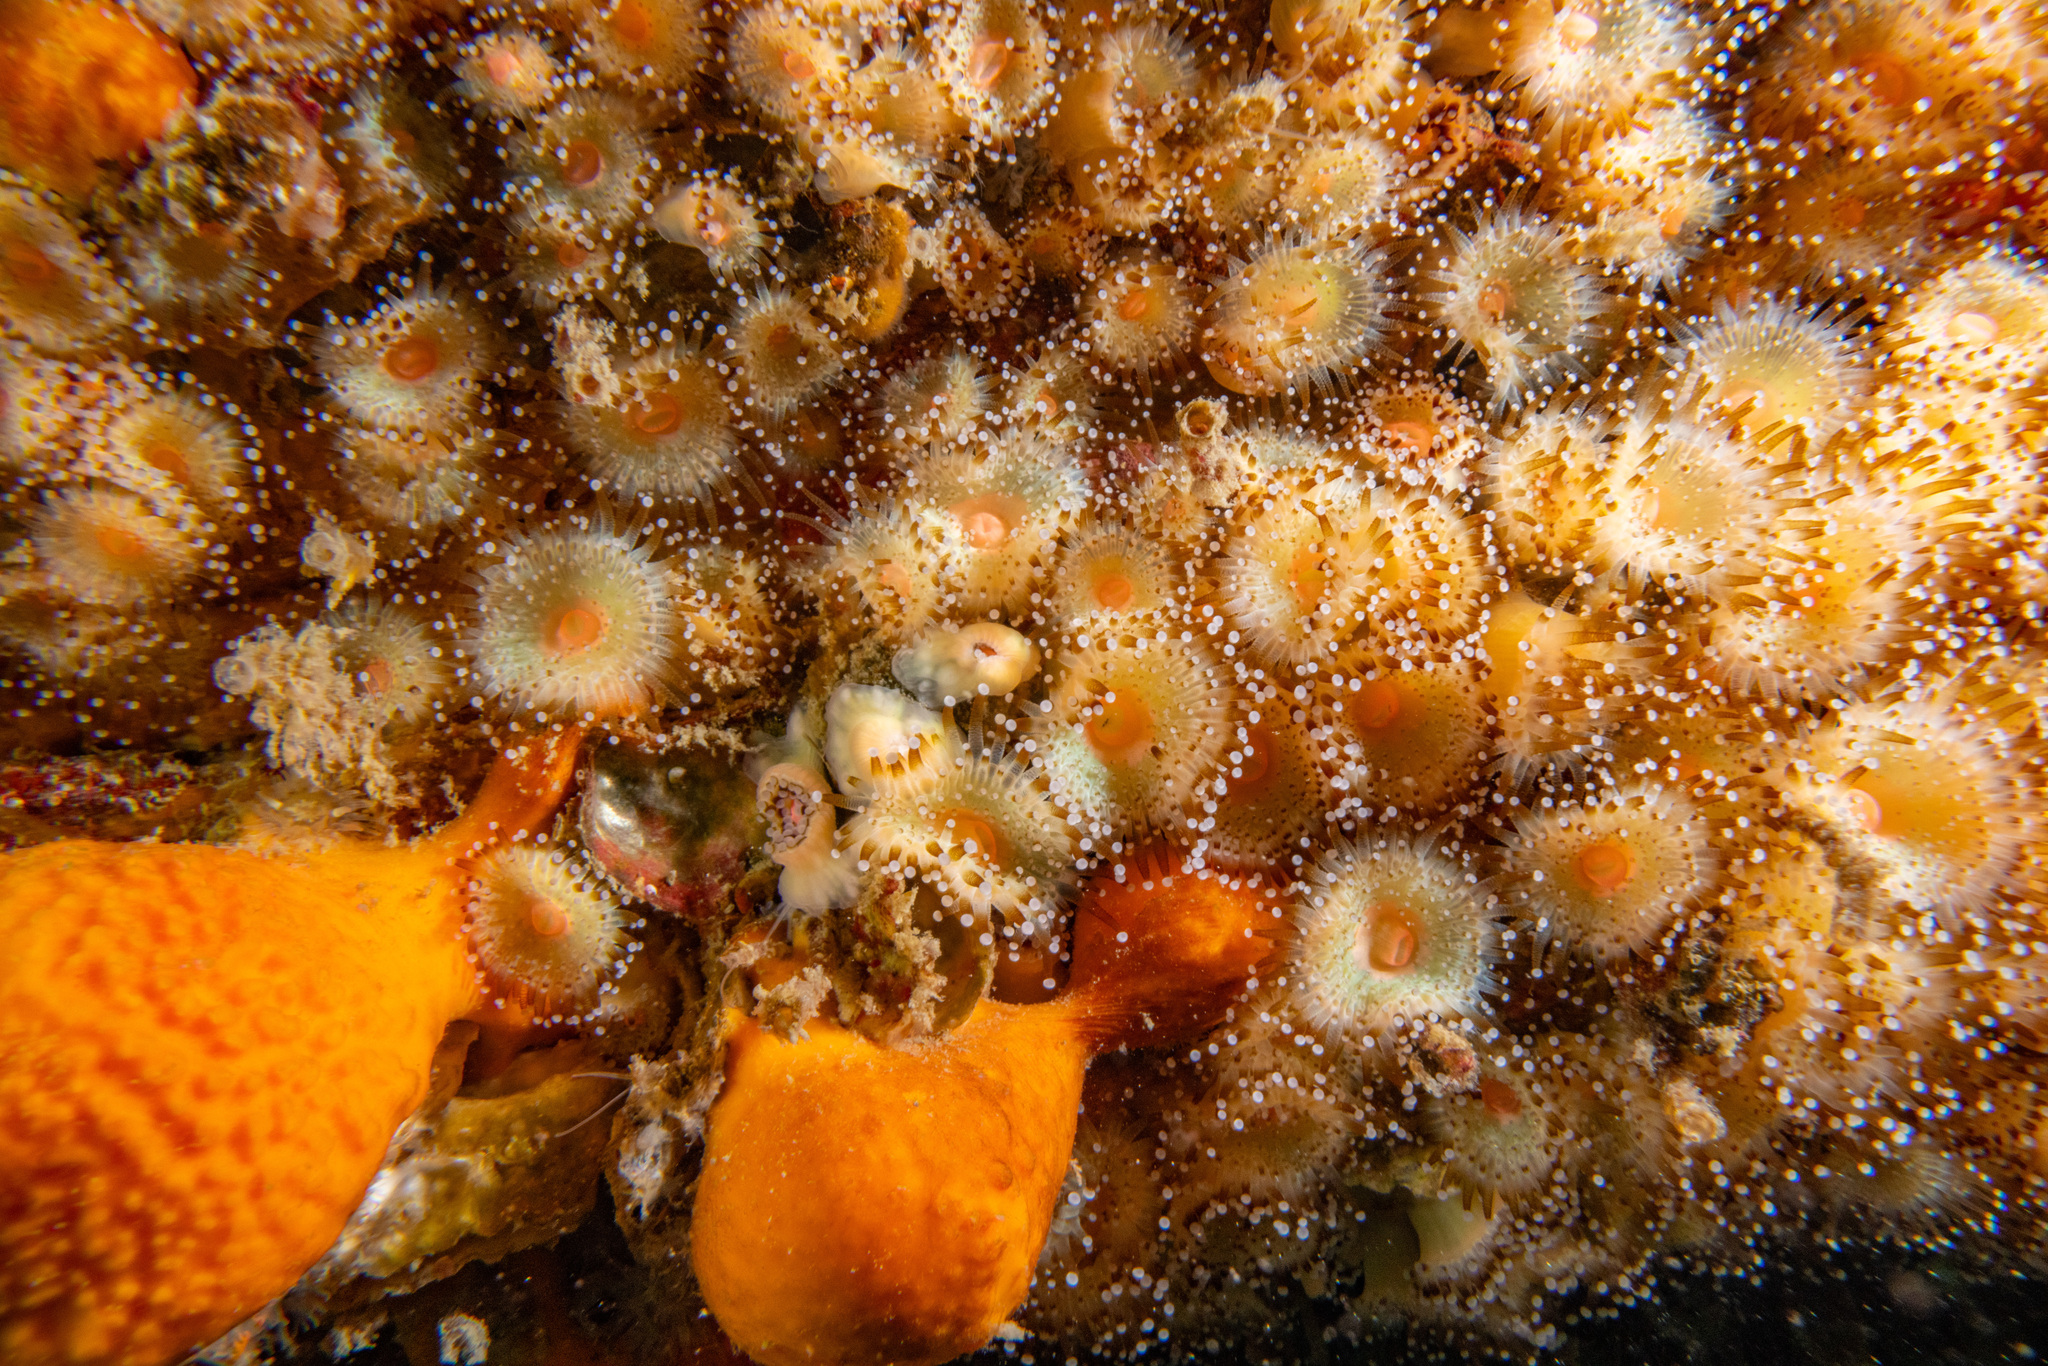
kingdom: Animalia
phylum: Cnidaria
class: Anthozoa
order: Corallimorpharia
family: Corallimorphidae
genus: Corynactis
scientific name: Corynactis australis
